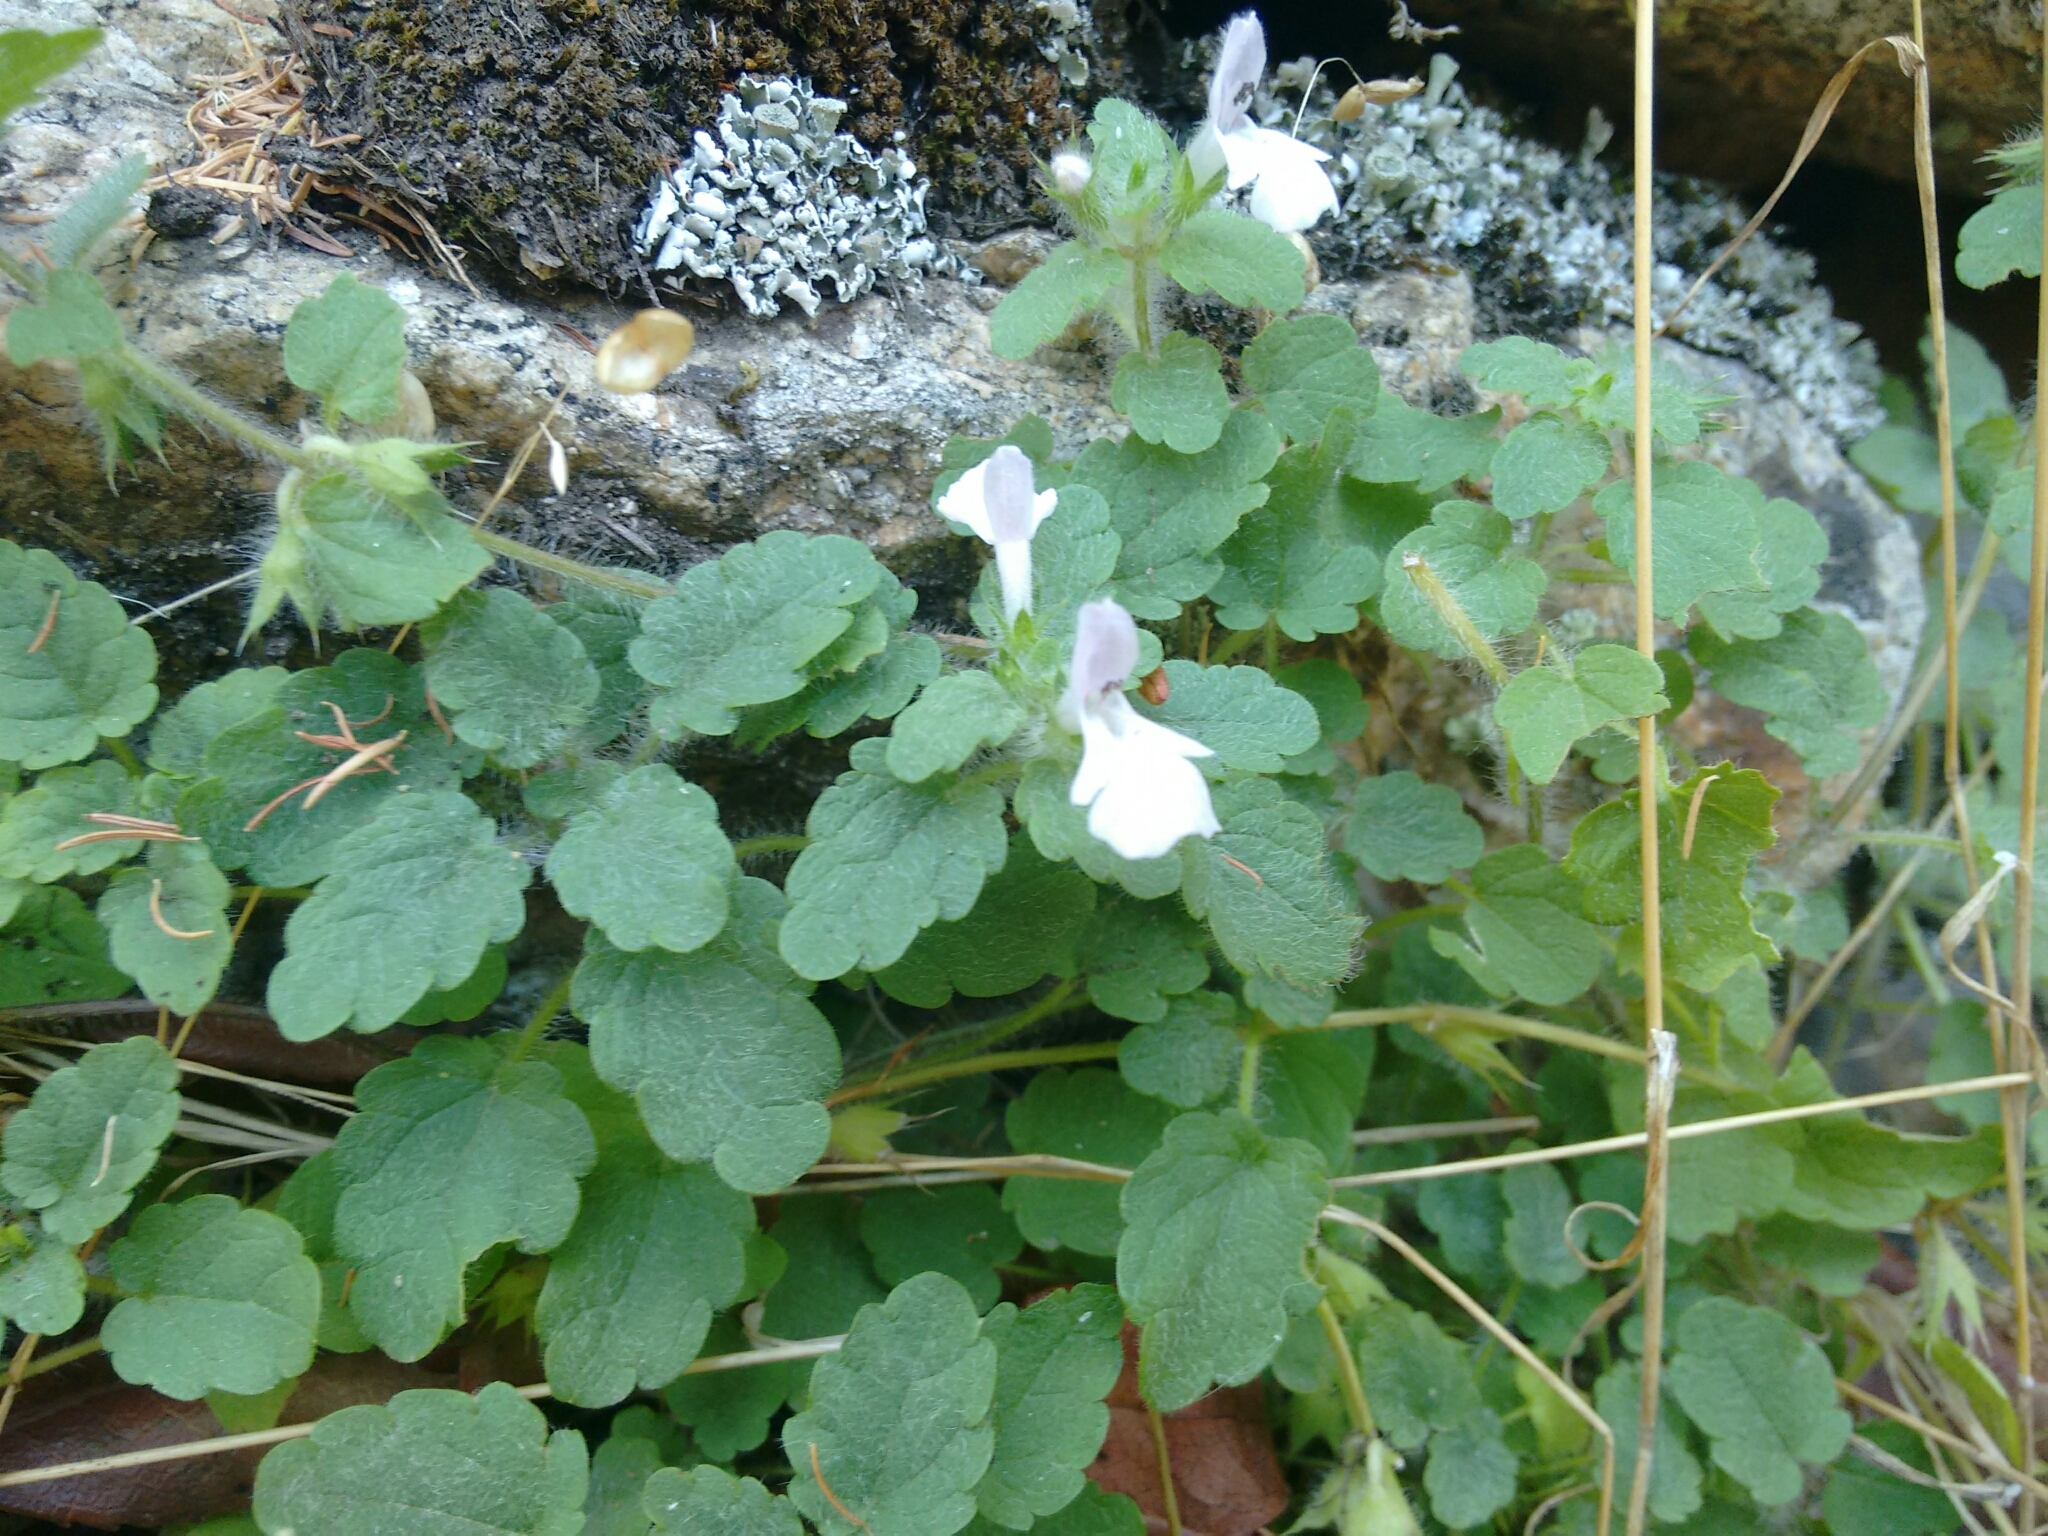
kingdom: Plantae
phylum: Tracheophyta
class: Magnoliopsida
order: Lamiales
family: Lamiaceae
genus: Stachys
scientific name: Stachys corsica
